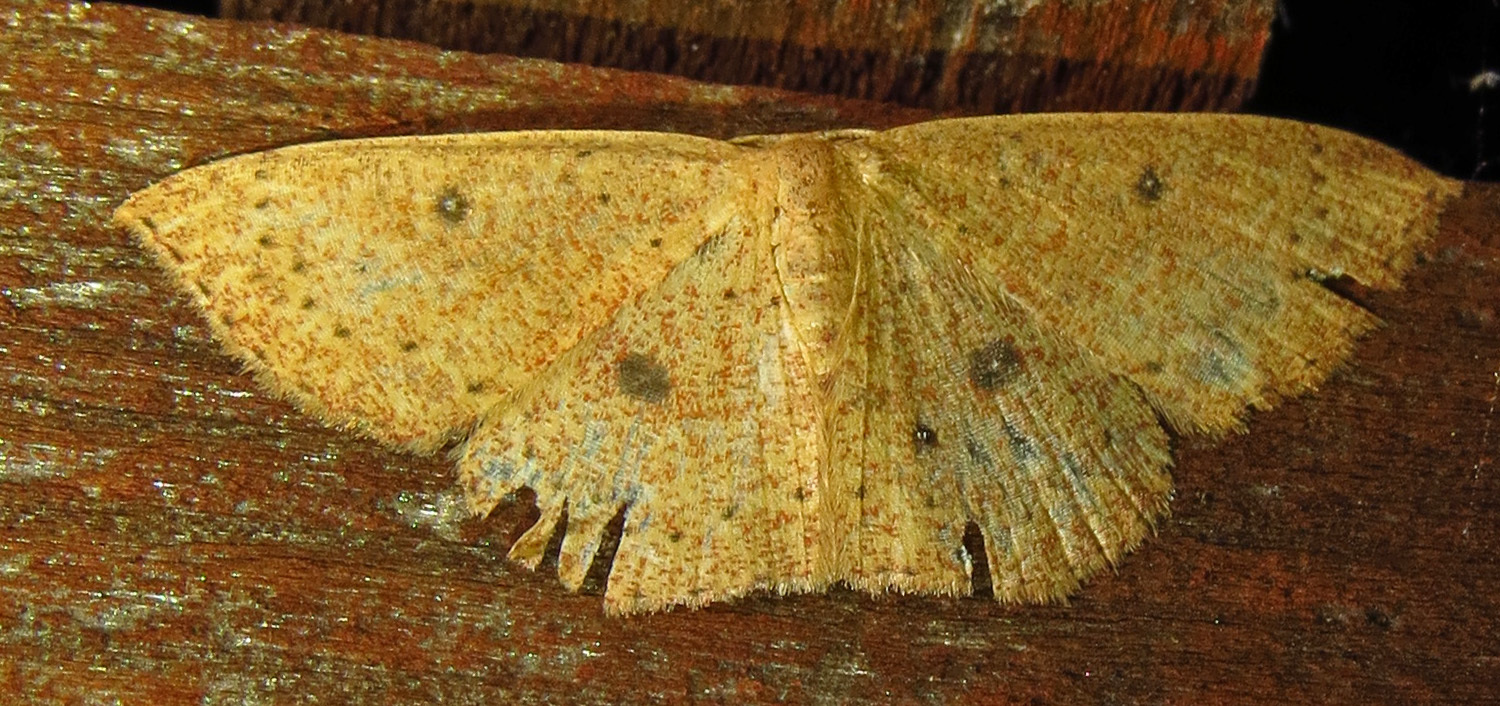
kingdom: Animalia
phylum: Arthropoda
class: Insecta
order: Lepidoptera
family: Geometridae
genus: Cyclophora
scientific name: Cyclophora packardi
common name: Packard's wave
